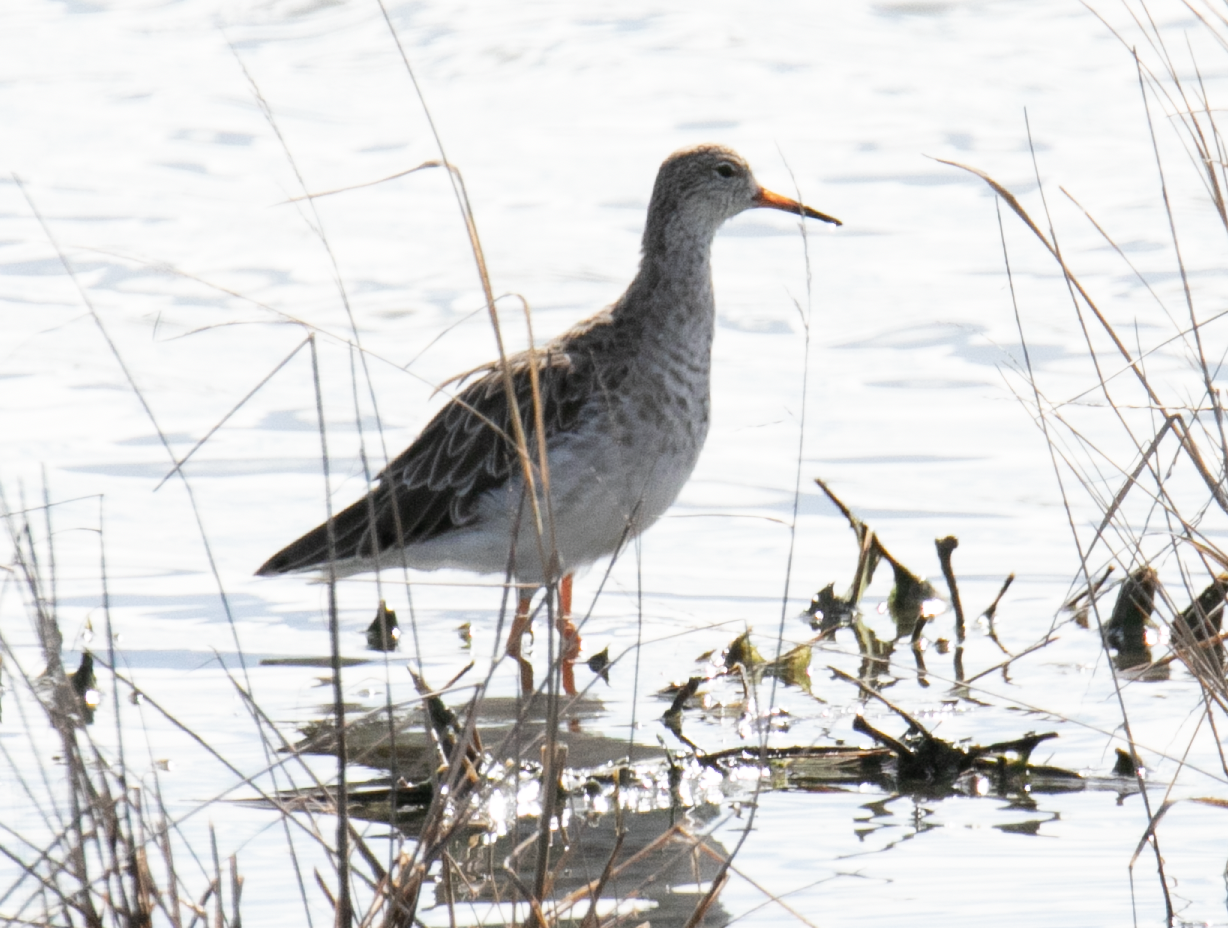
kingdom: Animalia
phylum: Chordata
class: Aves
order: Charadriiformes
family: Scolopacidae
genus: Calidris
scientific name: Calidris pugnax
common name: Ruff
